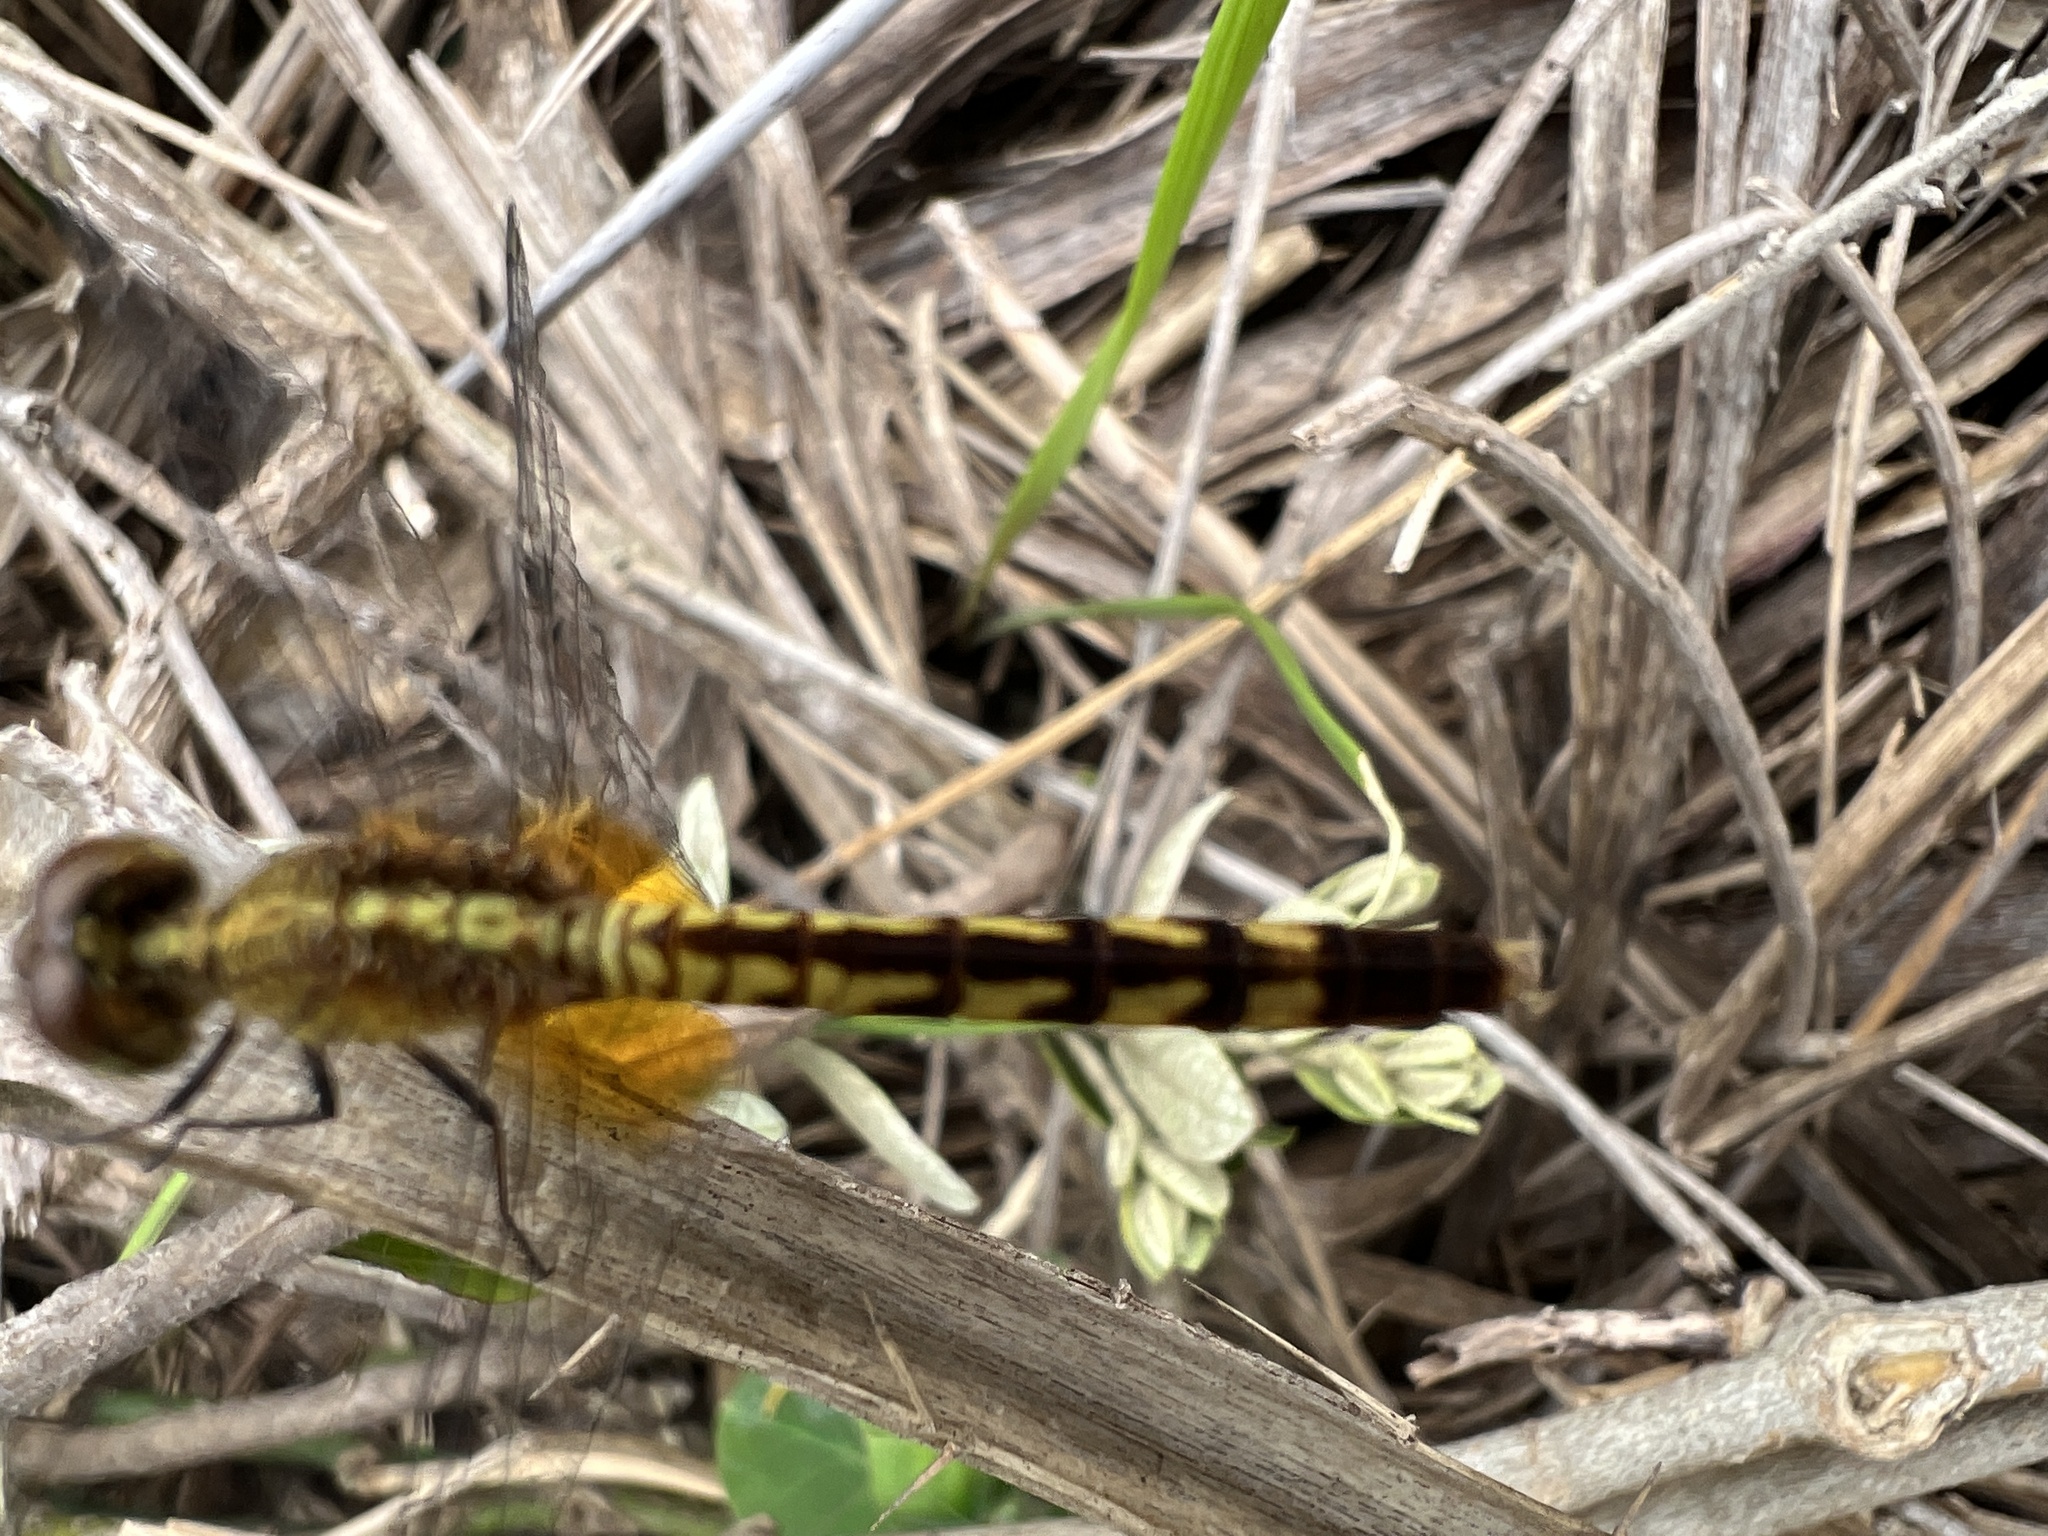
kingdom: Animalia
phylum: Arthropoda
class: Insecta
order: Odonata
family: Libellulidae
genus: Erythrodiplax
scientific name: Erythrodiplax umbrata
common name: Band-winged dragonlet
